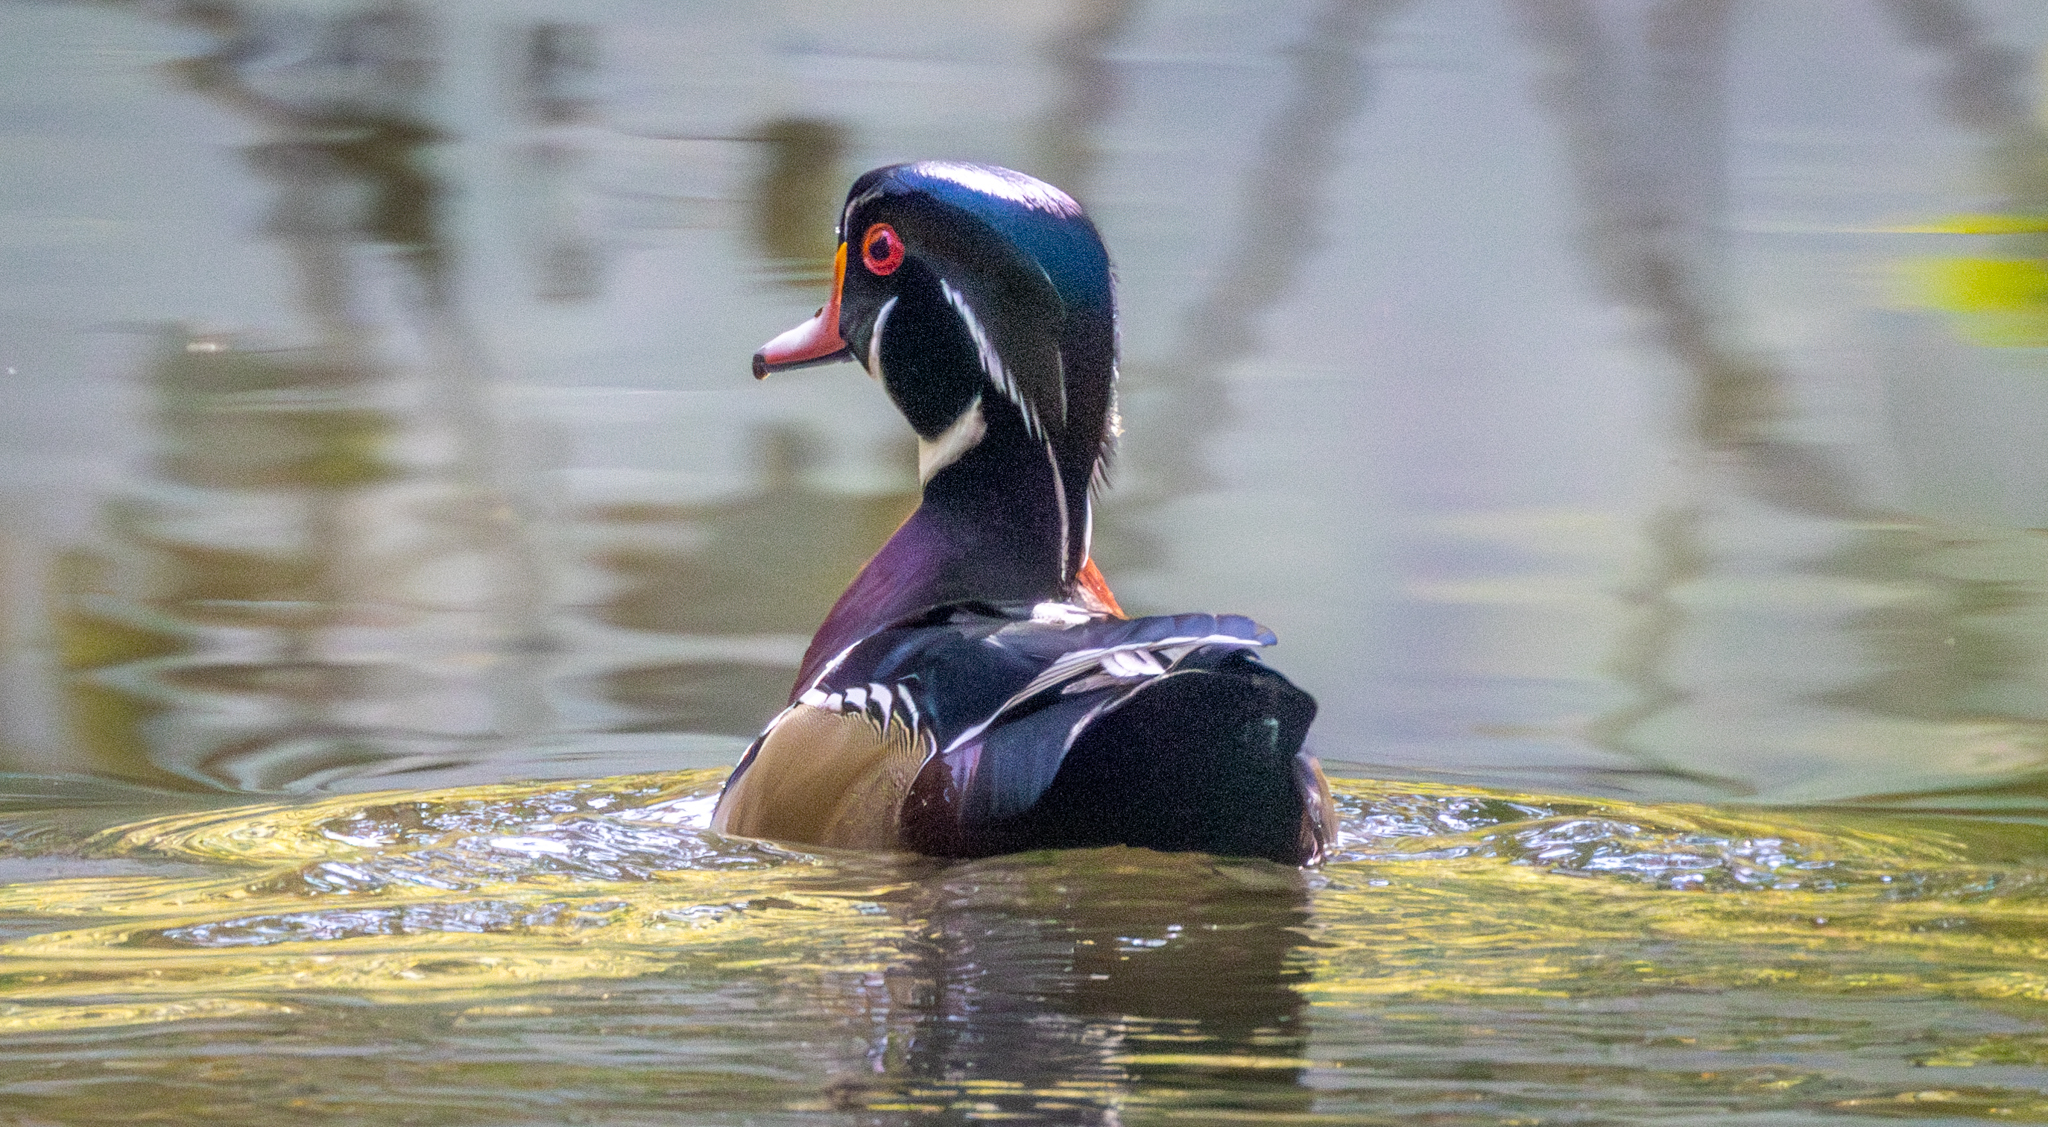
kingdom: Animalia
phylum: Chordata
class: Aves
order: Anseriformes
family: Anatidae
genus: Aix
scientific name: Aix sponsa
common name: Wood duck
